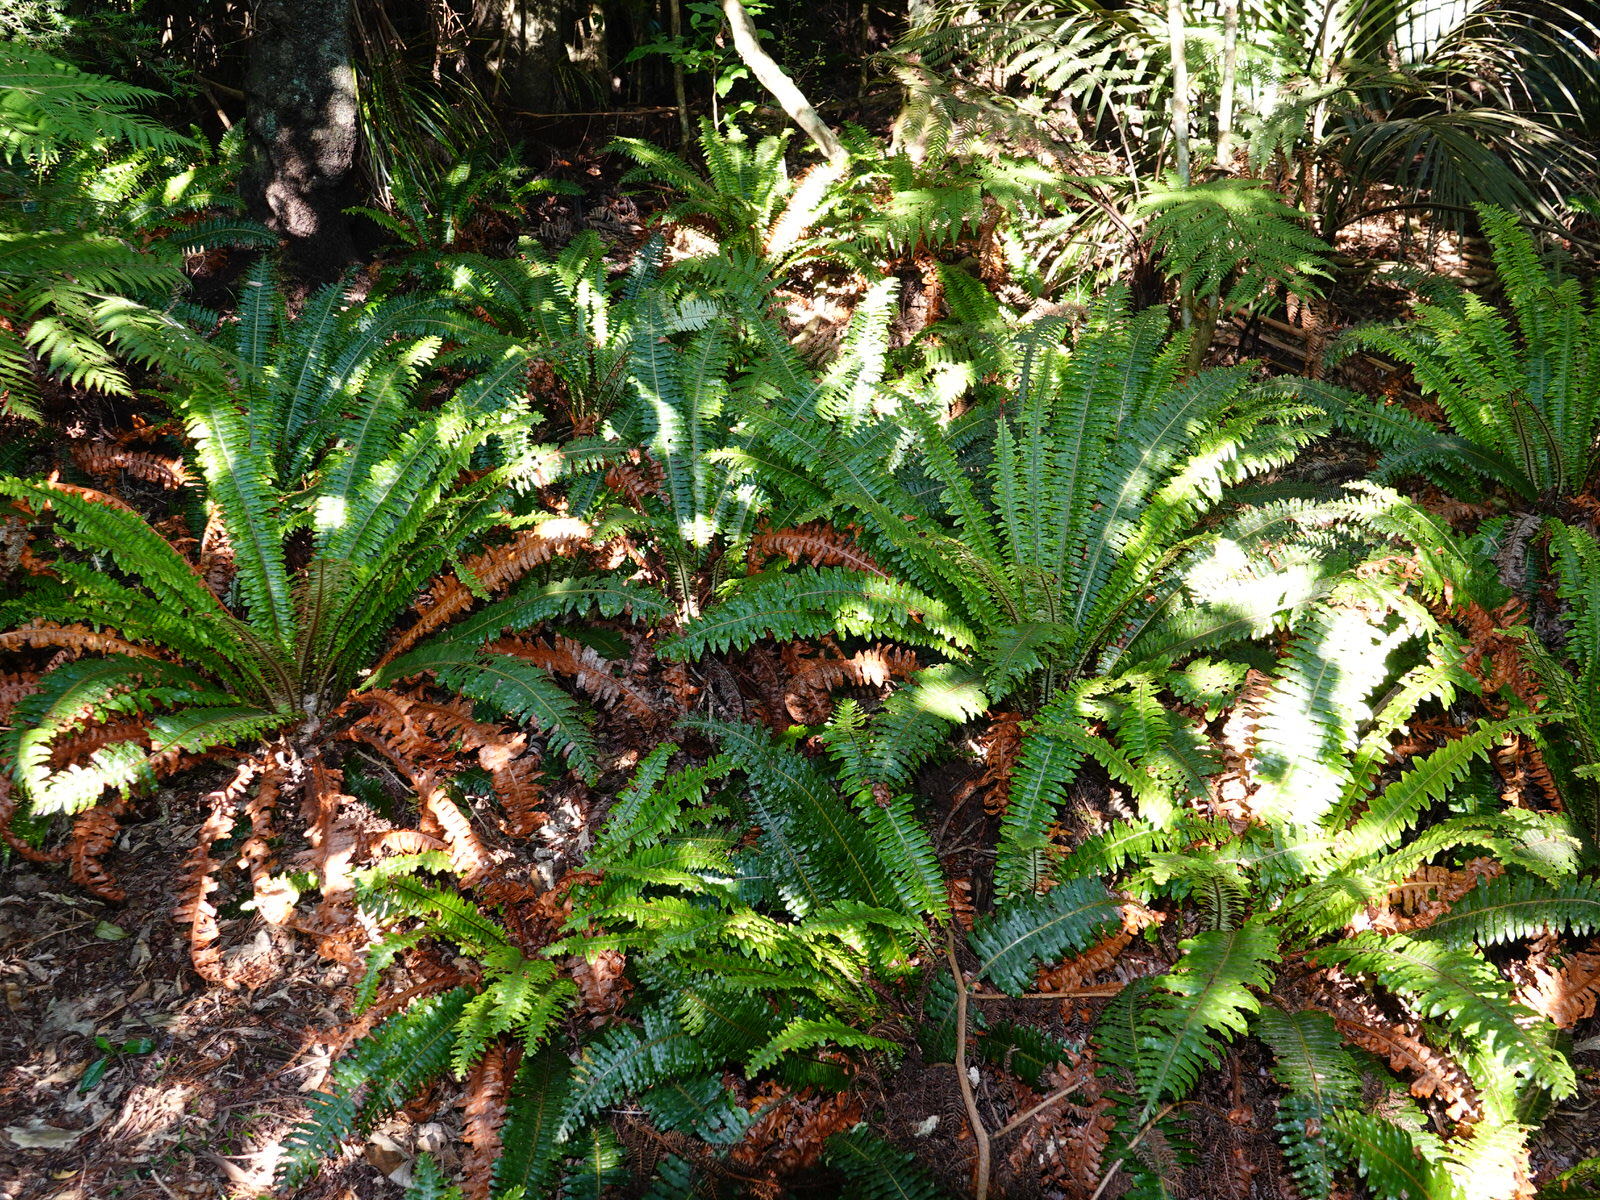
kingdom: Plantae
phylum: Tracheophyta
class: Polypodiopsida
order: Polypodiales
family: Blechnaceae
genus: Lomaria
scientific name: Lomaria discolor
